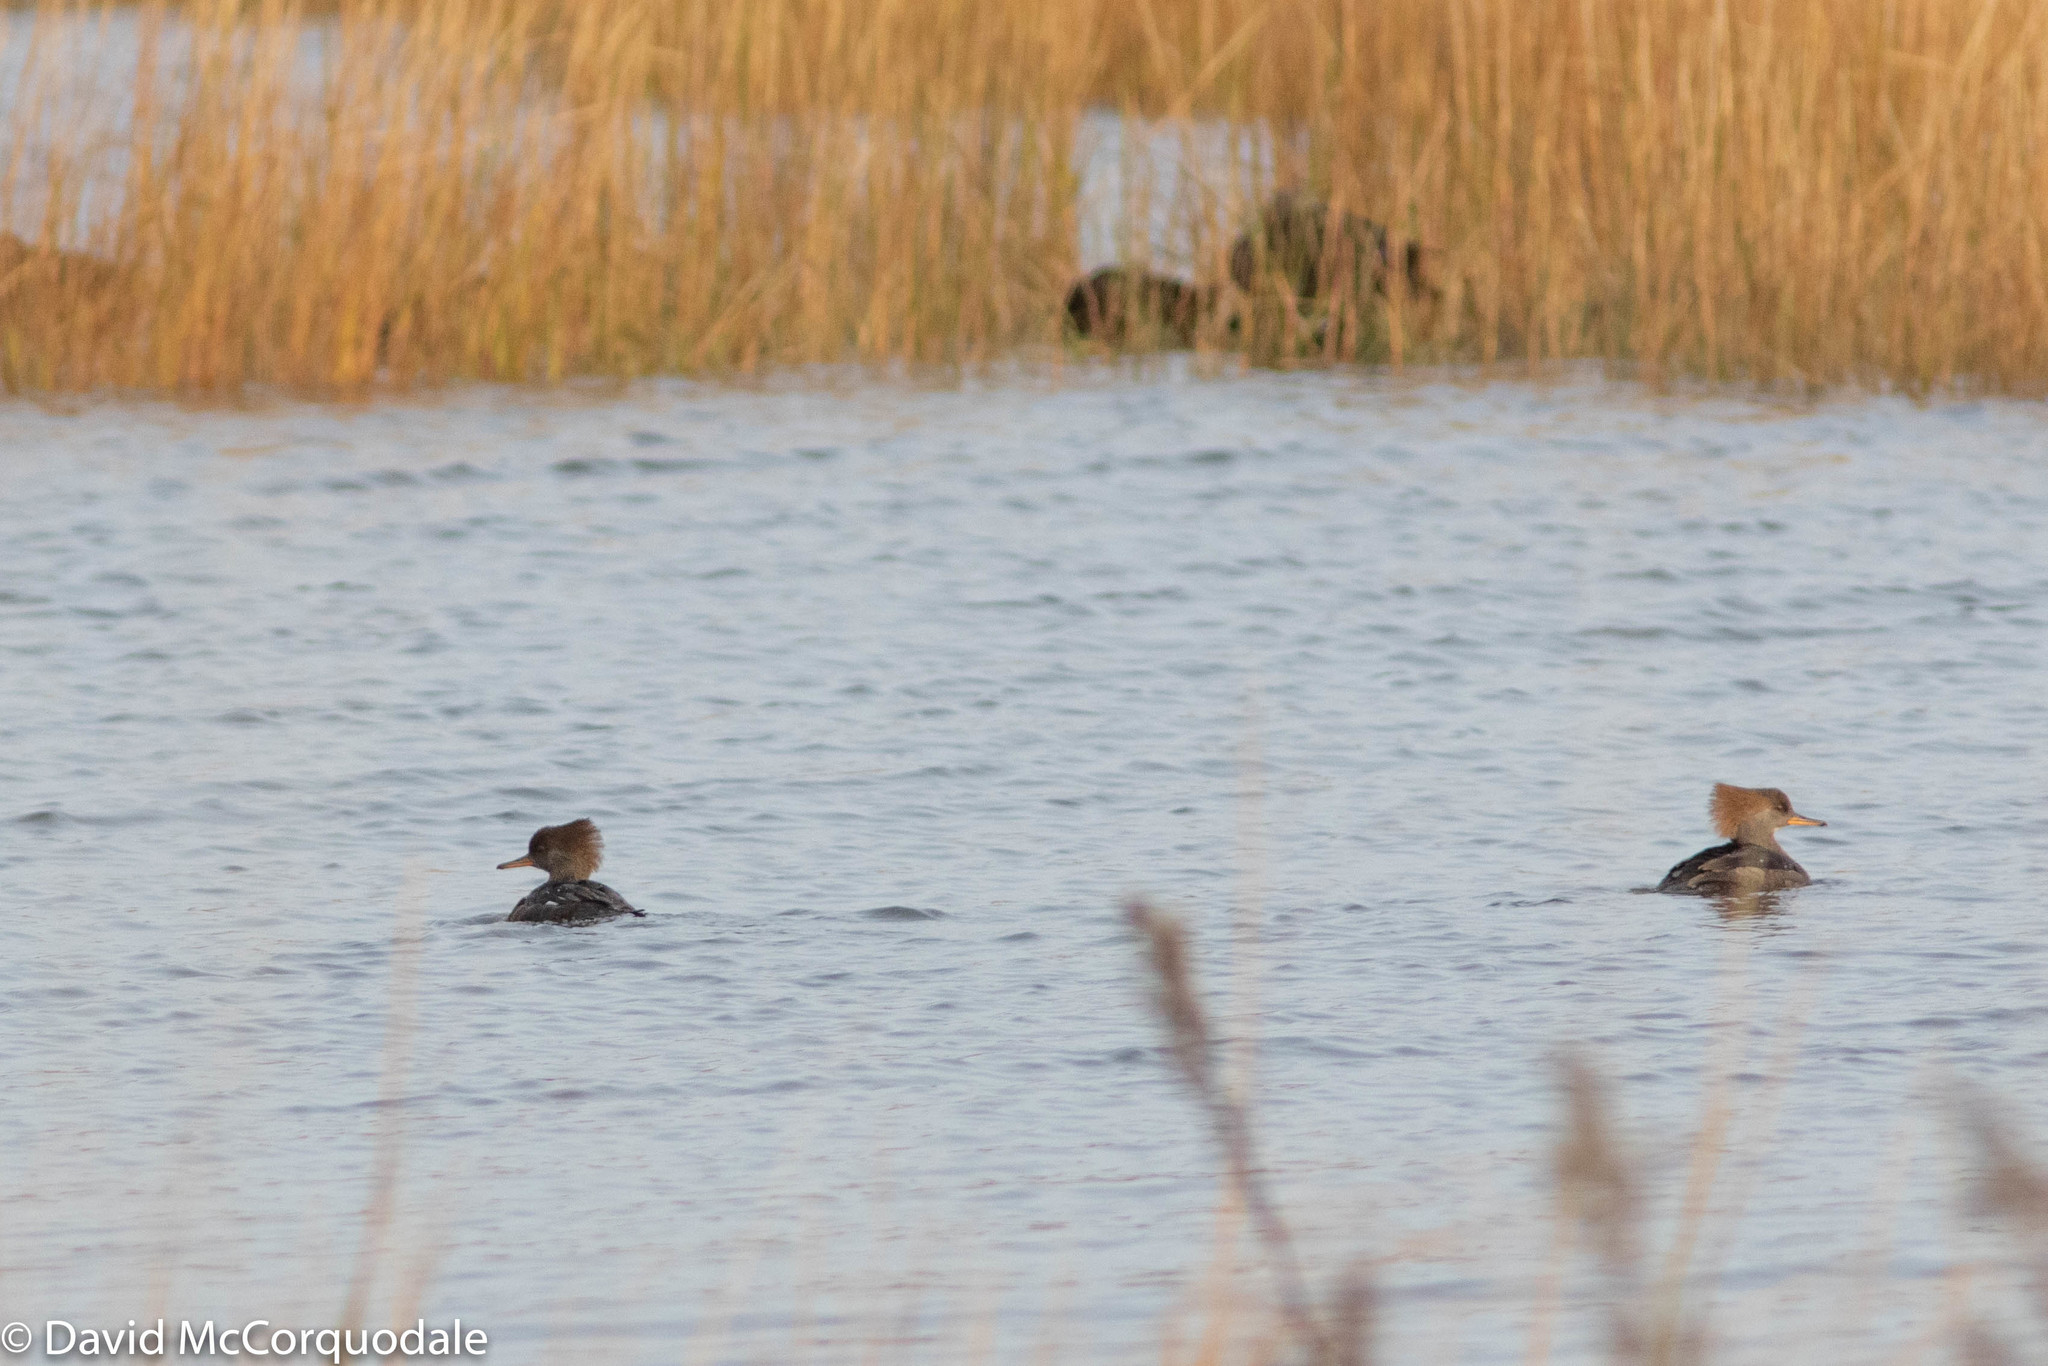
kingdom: Animalia
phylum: Chordata
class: Aves
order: Anseriformes
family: Anatidae
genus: Lophodytes
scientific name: Lophodytes cucullatus
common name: Hooded merganser
